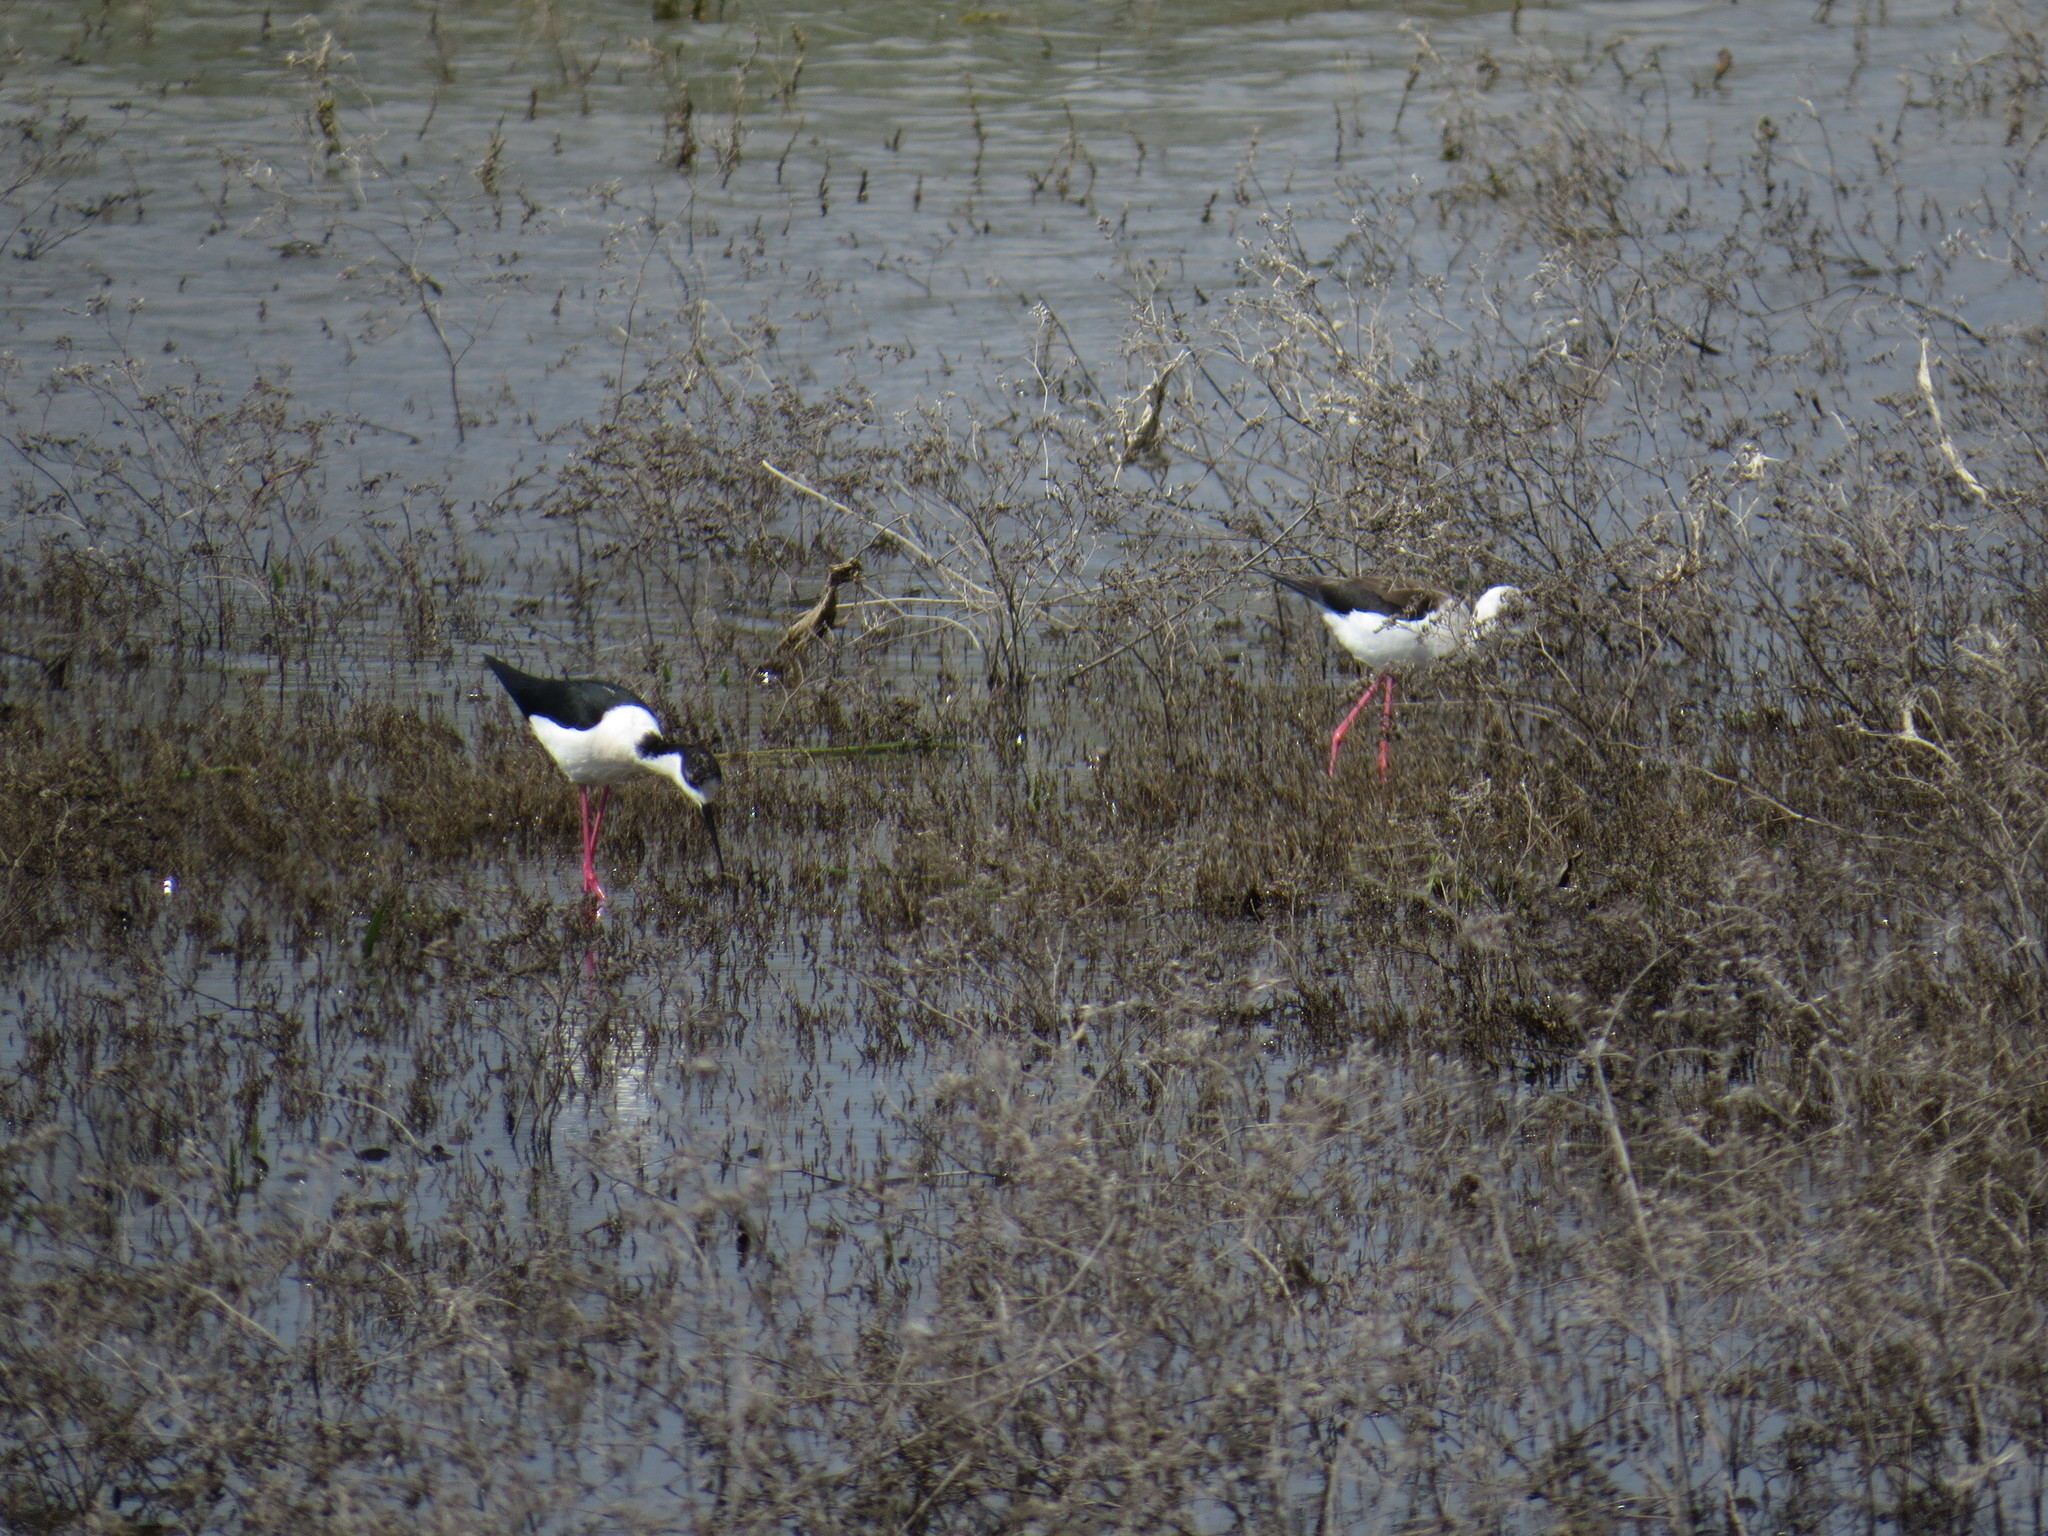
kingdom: Animalia
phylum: Chordata
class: Aves
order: Charadriiformes
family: Recurvirostridae
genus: Himantopus
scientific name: Himantopus himantopus
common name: Black-winged stilt
